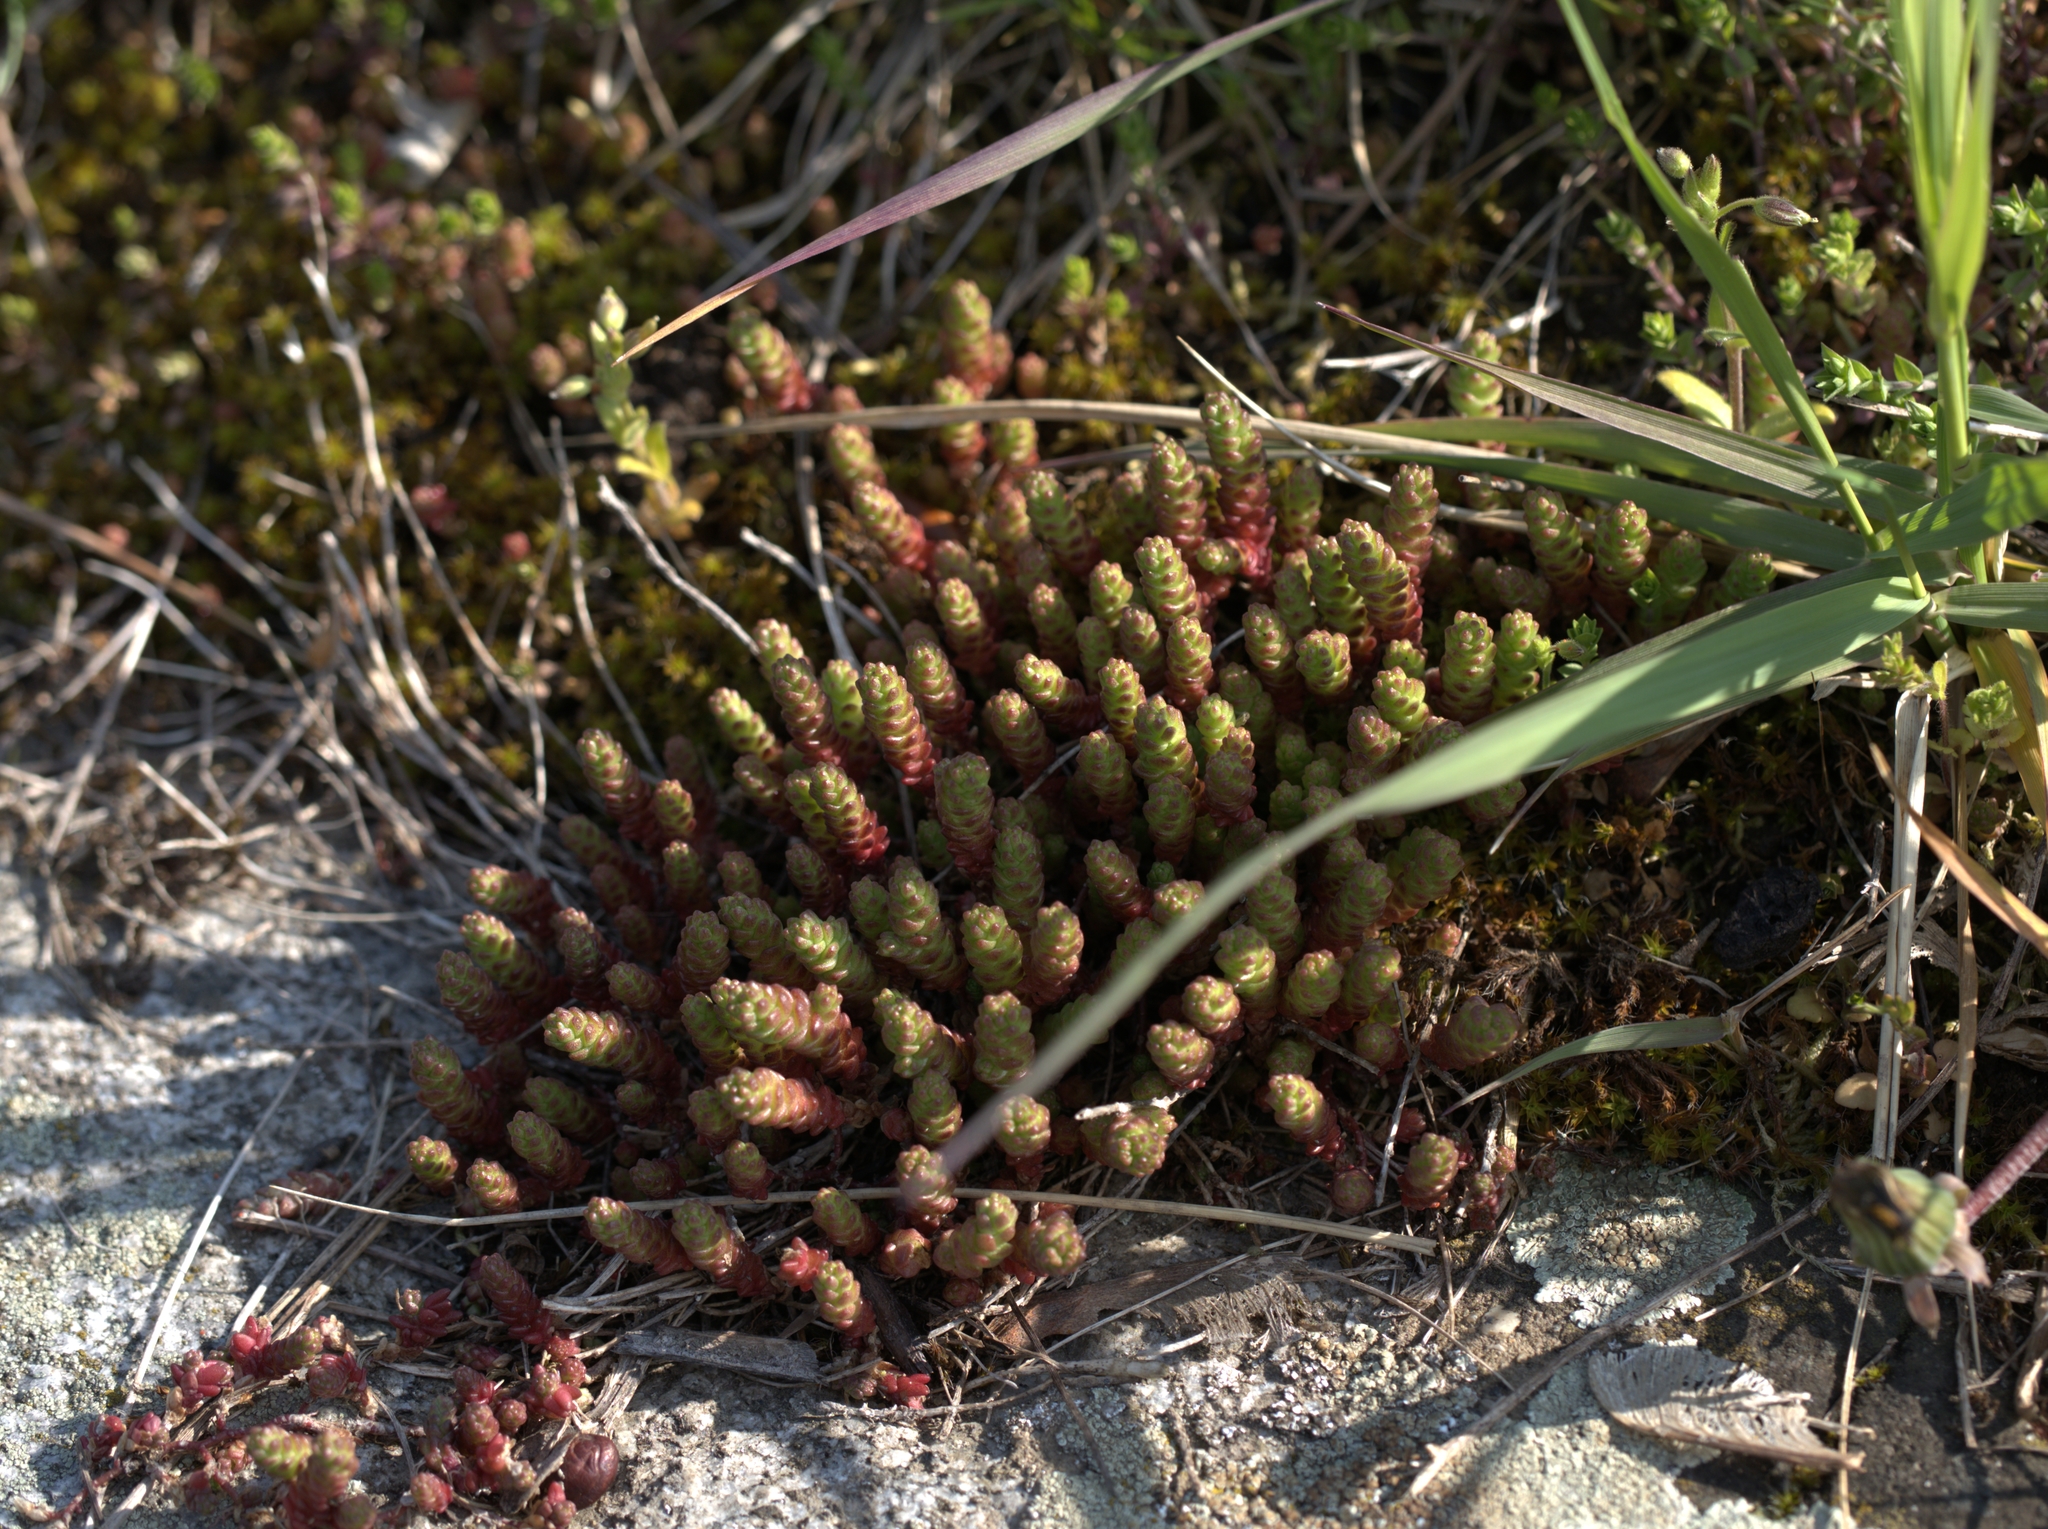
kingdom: Plantae
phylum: Tracheophyta
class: Magnoliopsida
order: Saxifragales
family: Crassulaceae
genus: Sedum
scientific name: Sedum acre
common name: Biting stonecrop
